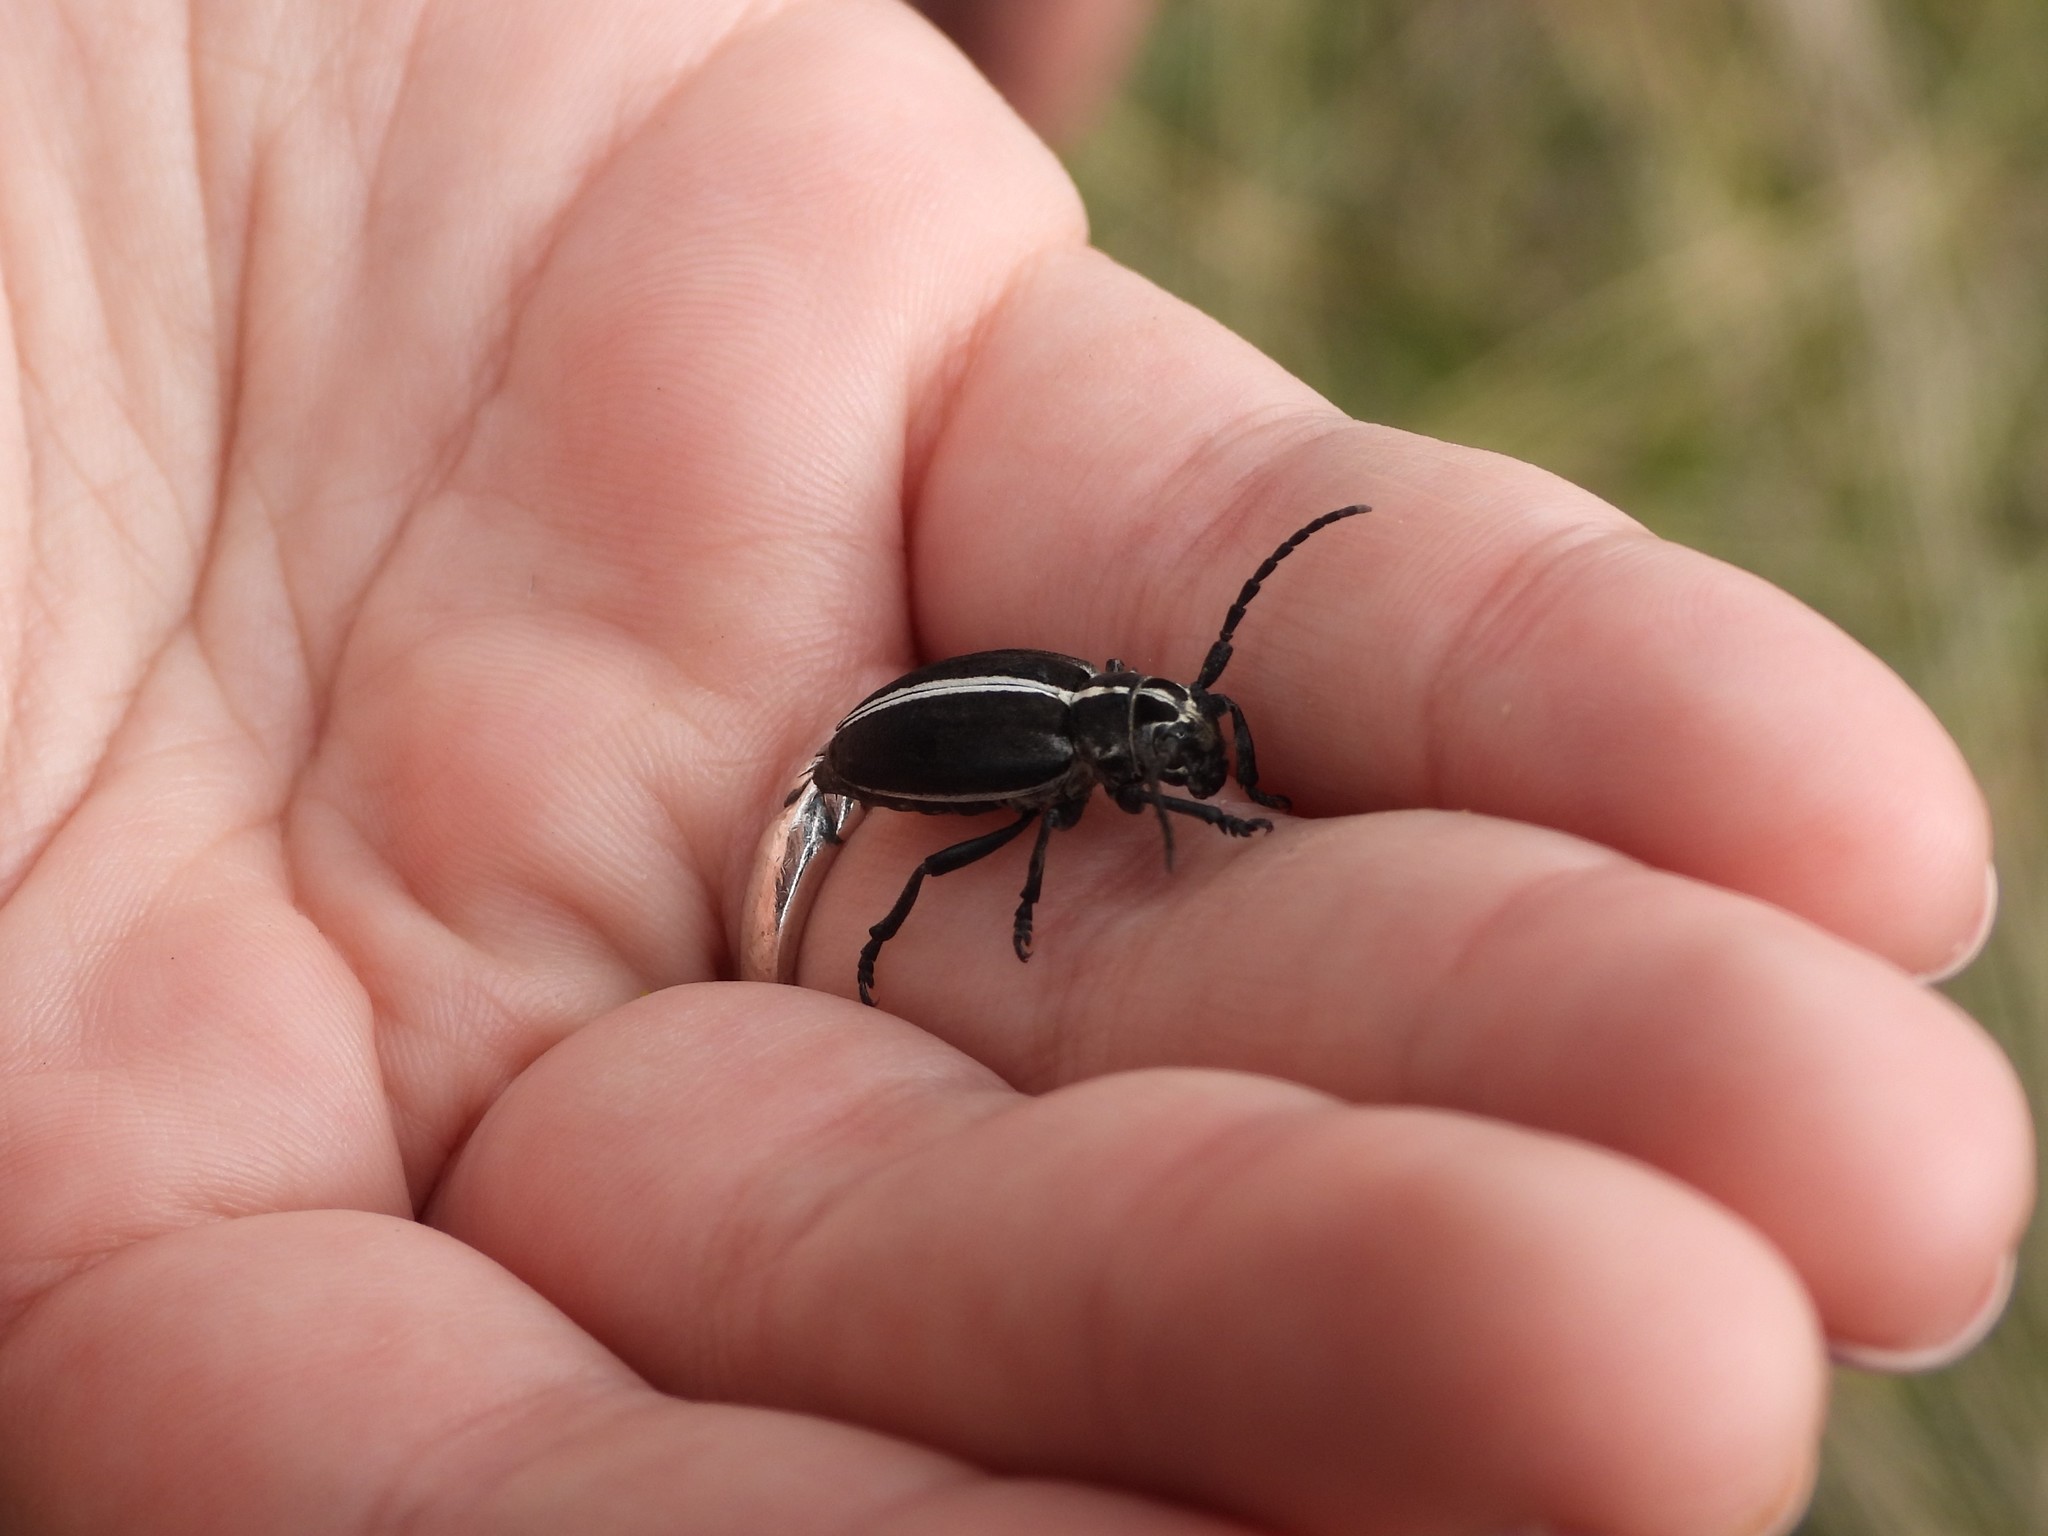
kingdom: Animalia
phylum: Arthropoda
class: Insecta
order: Coleoptera
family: Cerambycidae
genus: Dorcadion
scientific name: Dorcadion arenarium
